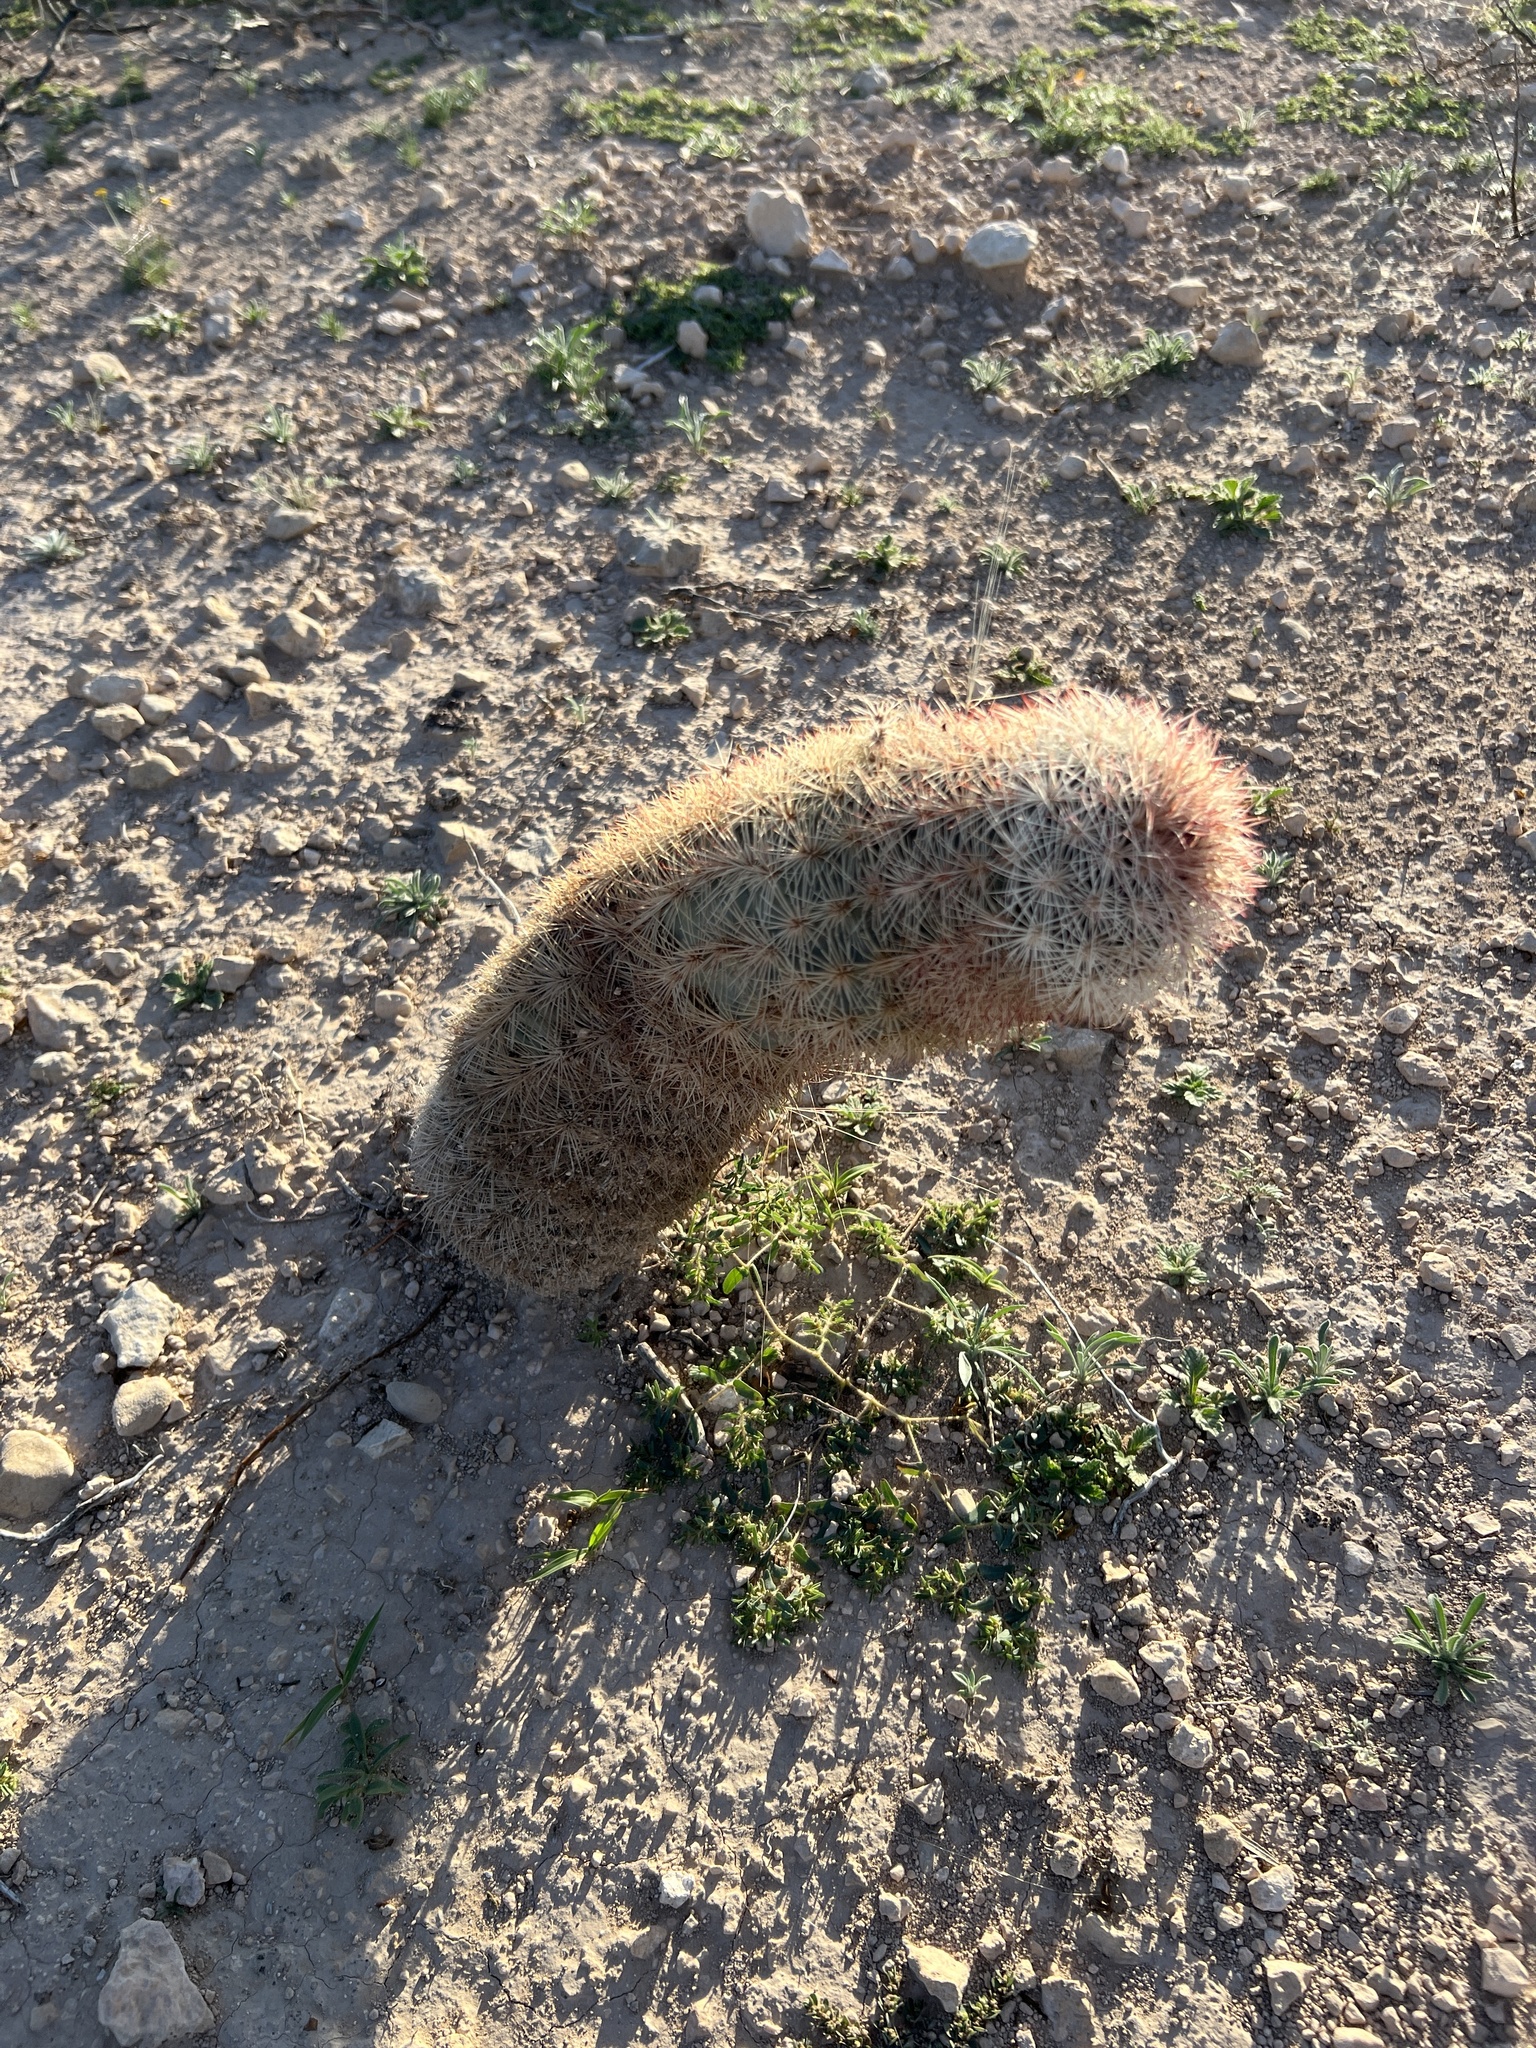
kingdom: Plantae
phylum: Tracheophyta
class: Magnoliopsida
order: Caryophyllales
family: Cactaceae
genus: Echinocereus
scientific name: Echinocereus dasyacanthus
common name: Spiny hedgehog cactus
